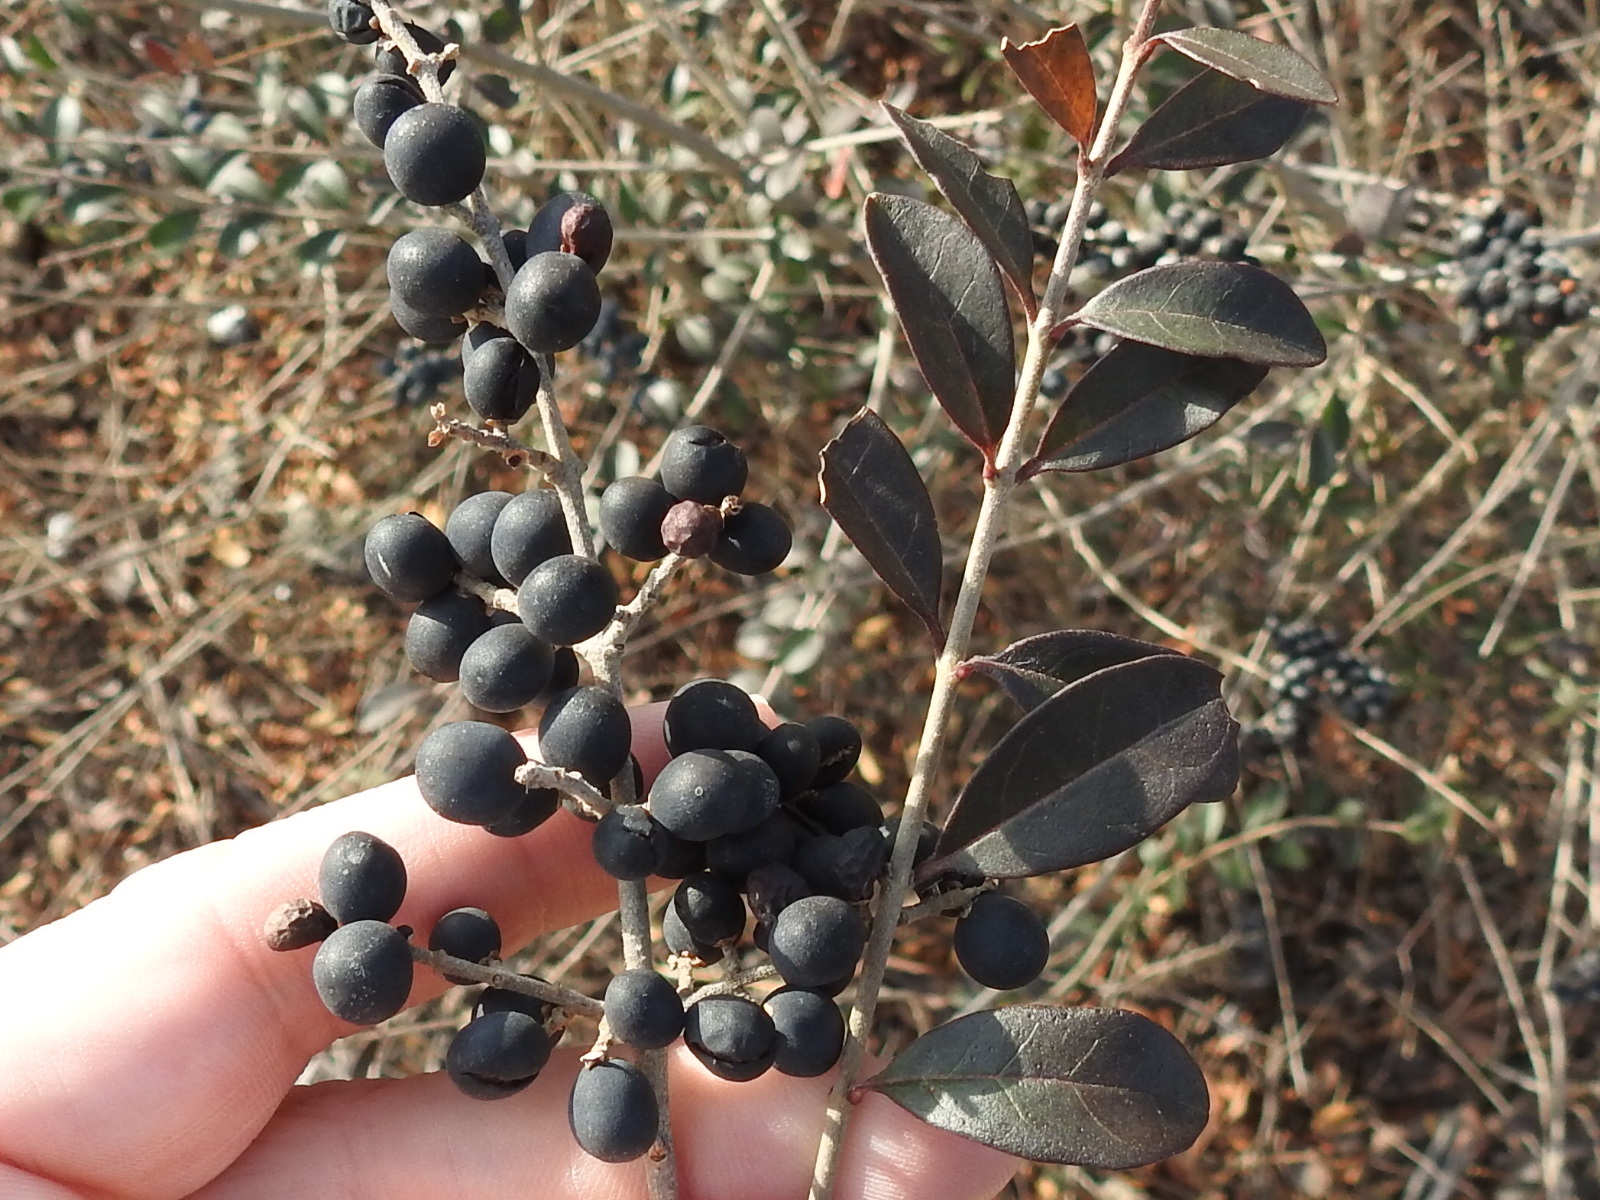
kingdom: Plantae
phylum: Tracheophyta
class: Magnoliopsida
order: Lamiales
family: Oleaceae
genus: Ligustrum
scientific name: Ligustrum quihoui
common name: Waxyleaf privet
